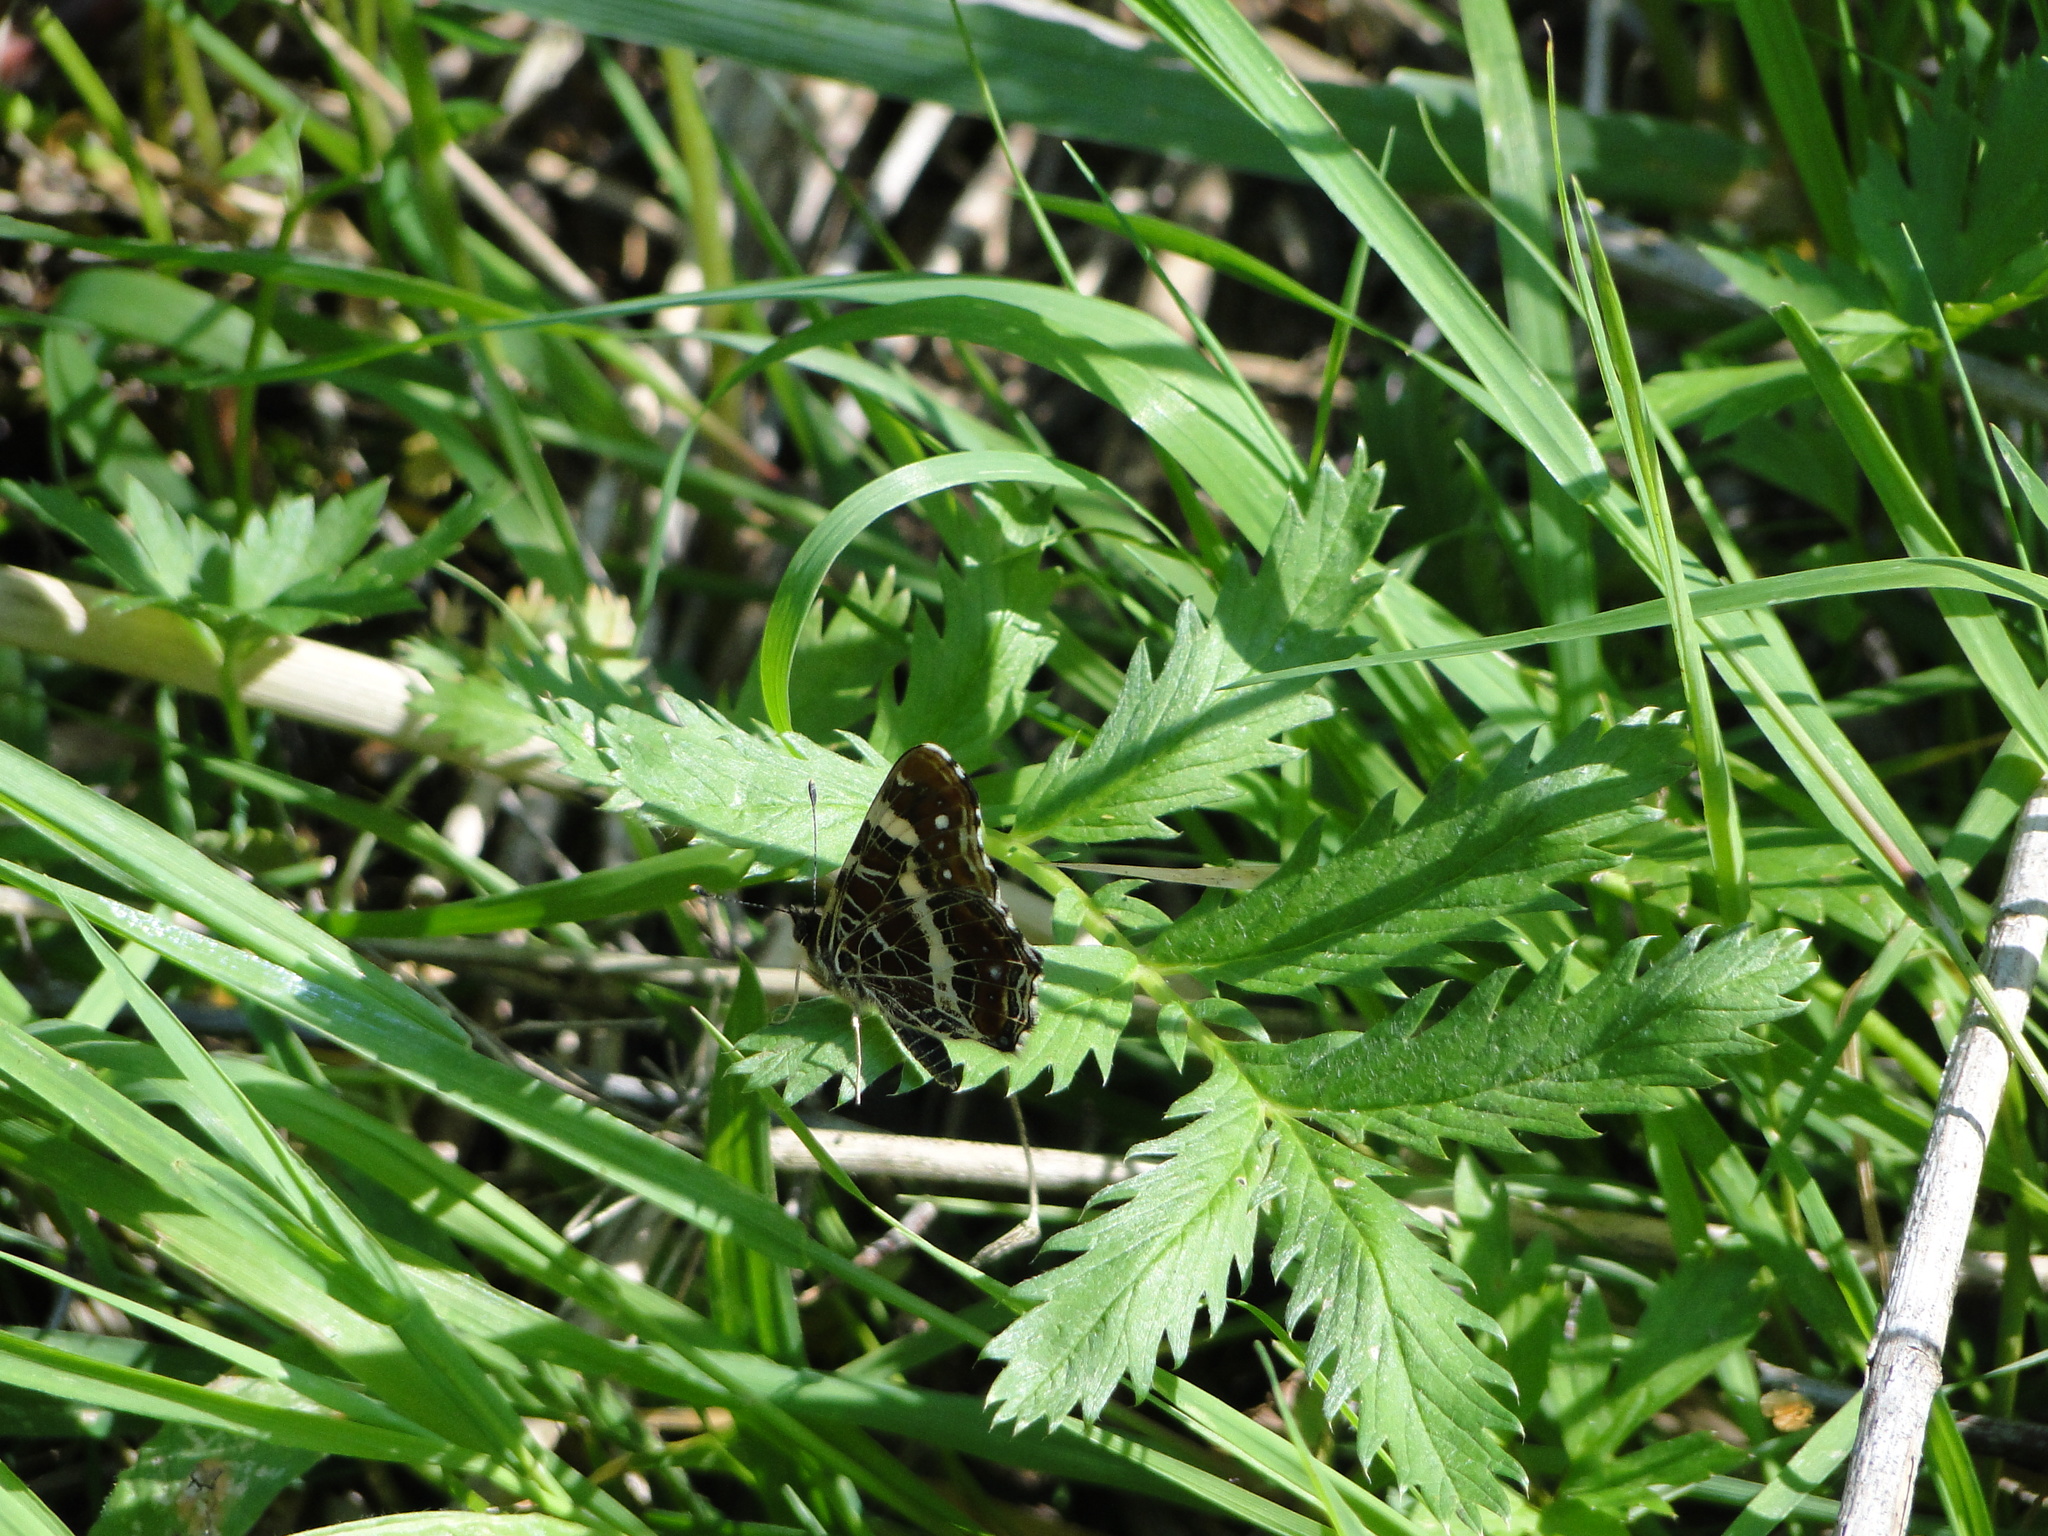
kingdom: Animalia
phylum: Arthropoda
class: Insecta
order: Lepidoptera
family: Nymphalidae
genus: Araschnia
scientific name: Araschnia levana
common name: Map butterfly
